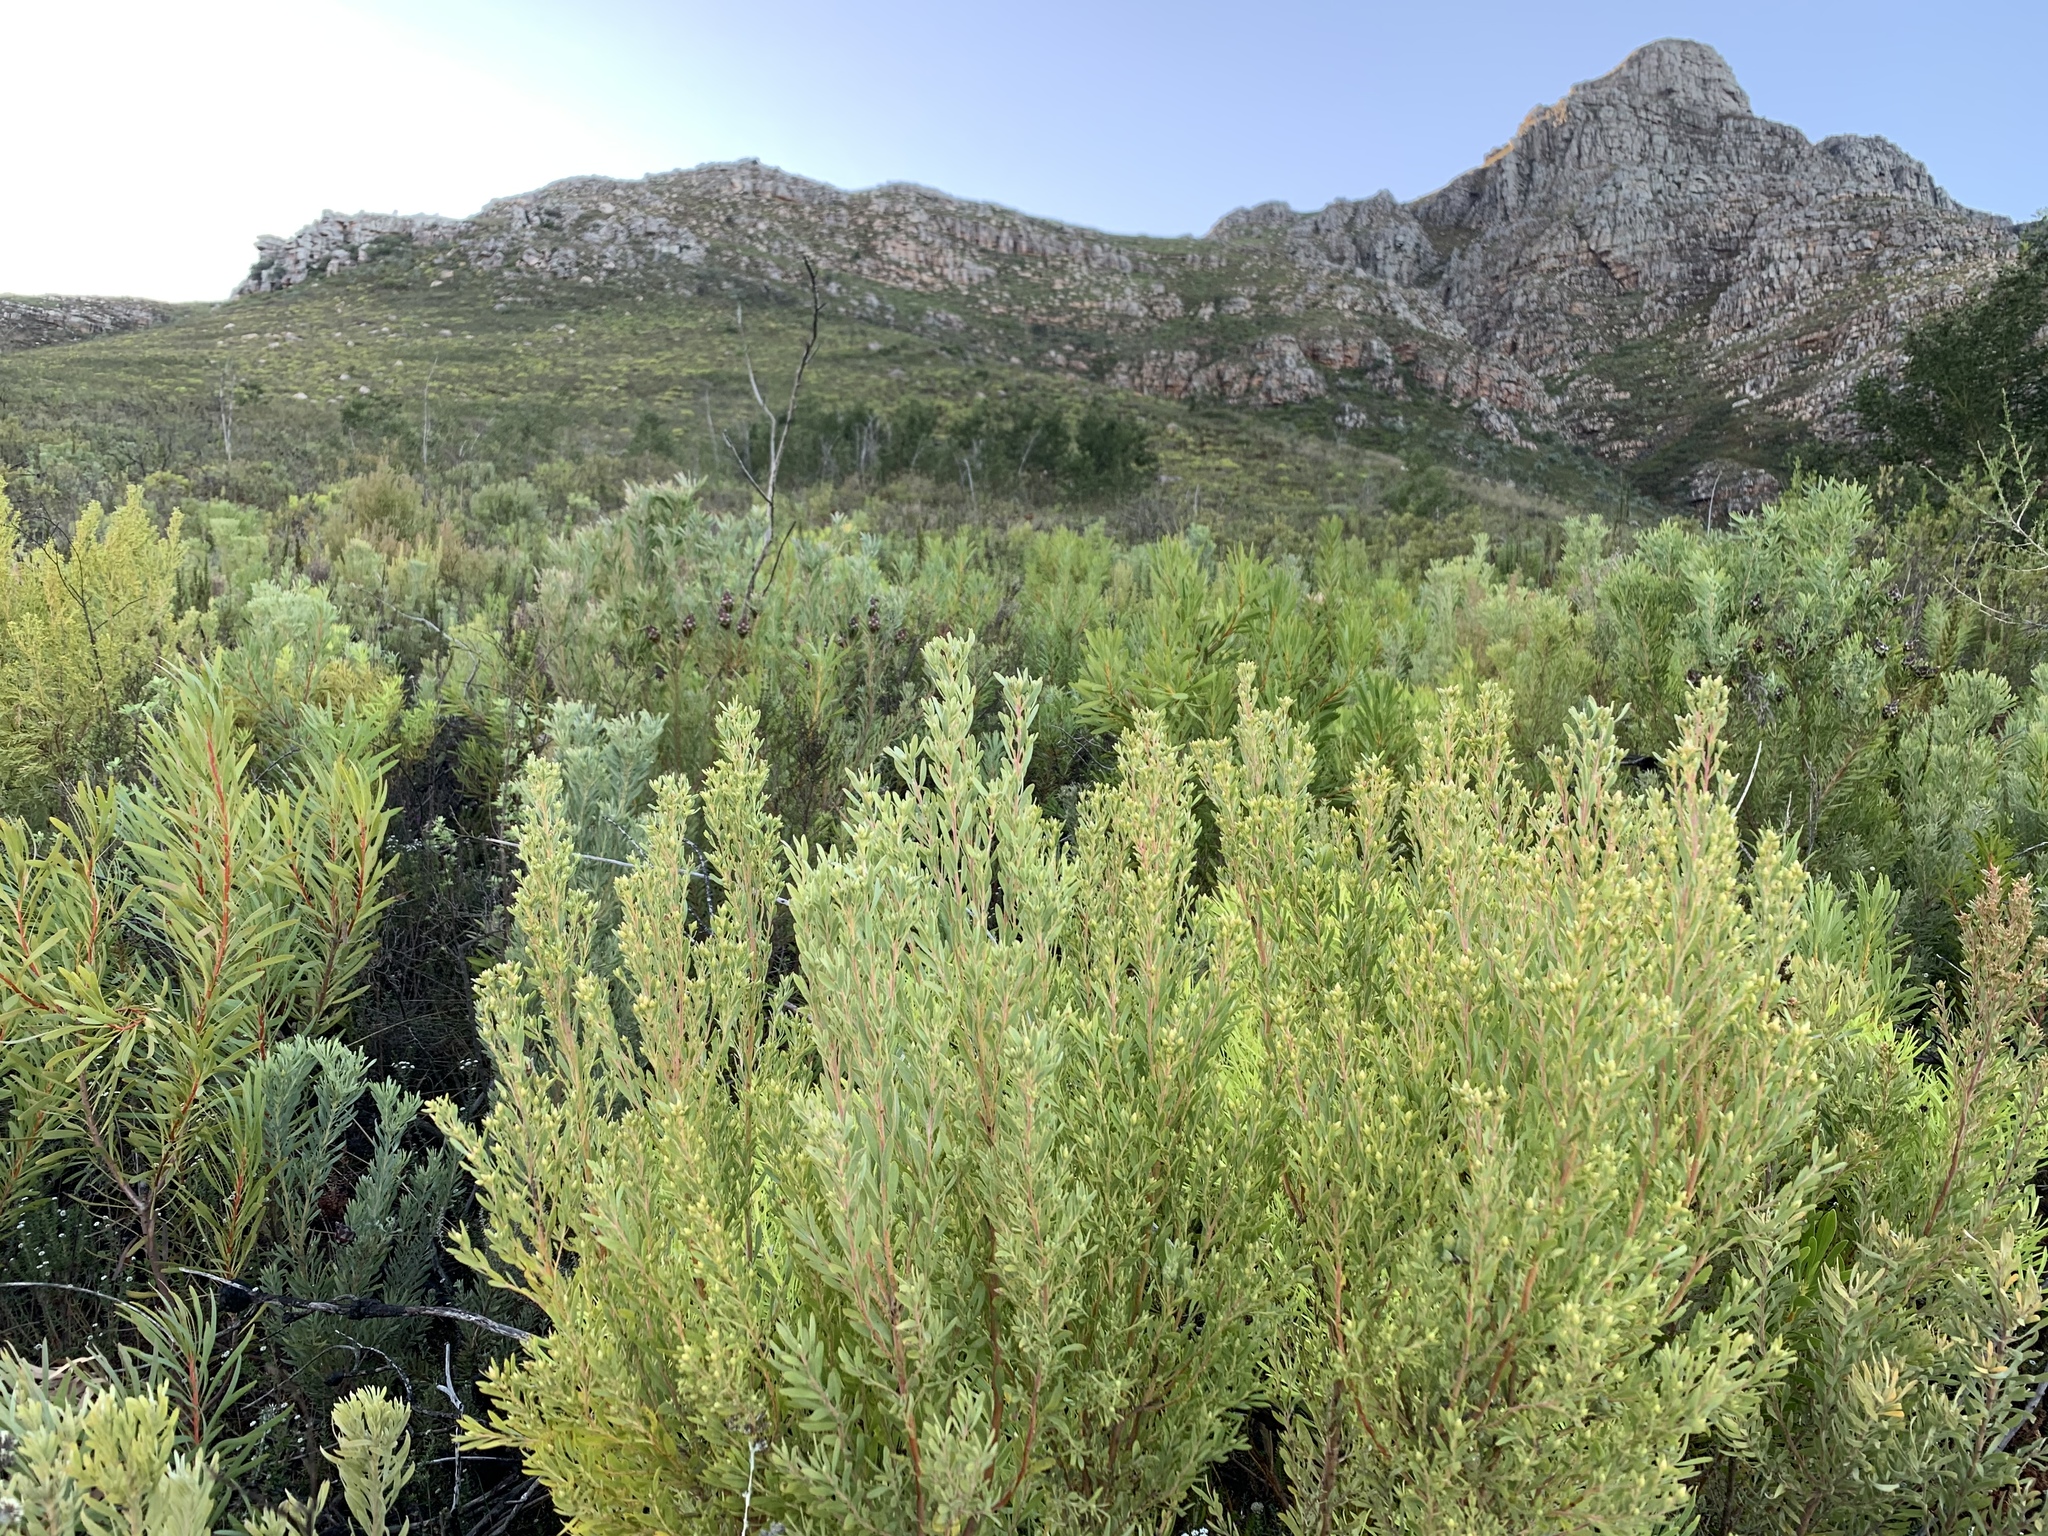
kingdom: Plantae
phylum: Tracheophyta
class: Magnoliopsida
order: Proteales
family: Proteaceae
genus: Leucadendron
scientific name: Leucadendron rubrum
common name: Spinning top
